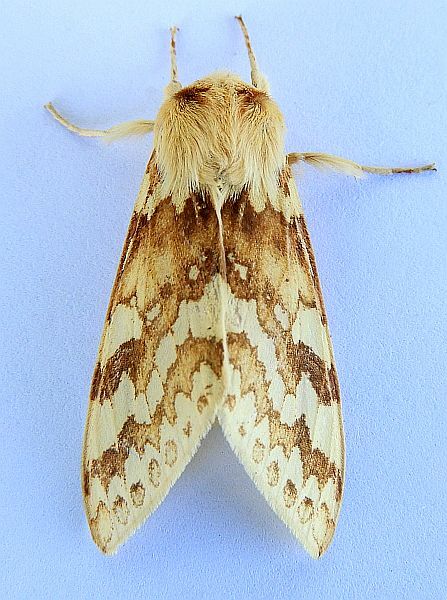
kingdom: Animalia
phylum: Arthropoda
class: Insecta
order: Lepidoptera
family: Erebidae
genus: Lophocampa
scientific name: Lophocampa maculata
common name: Spotted tussock moth
